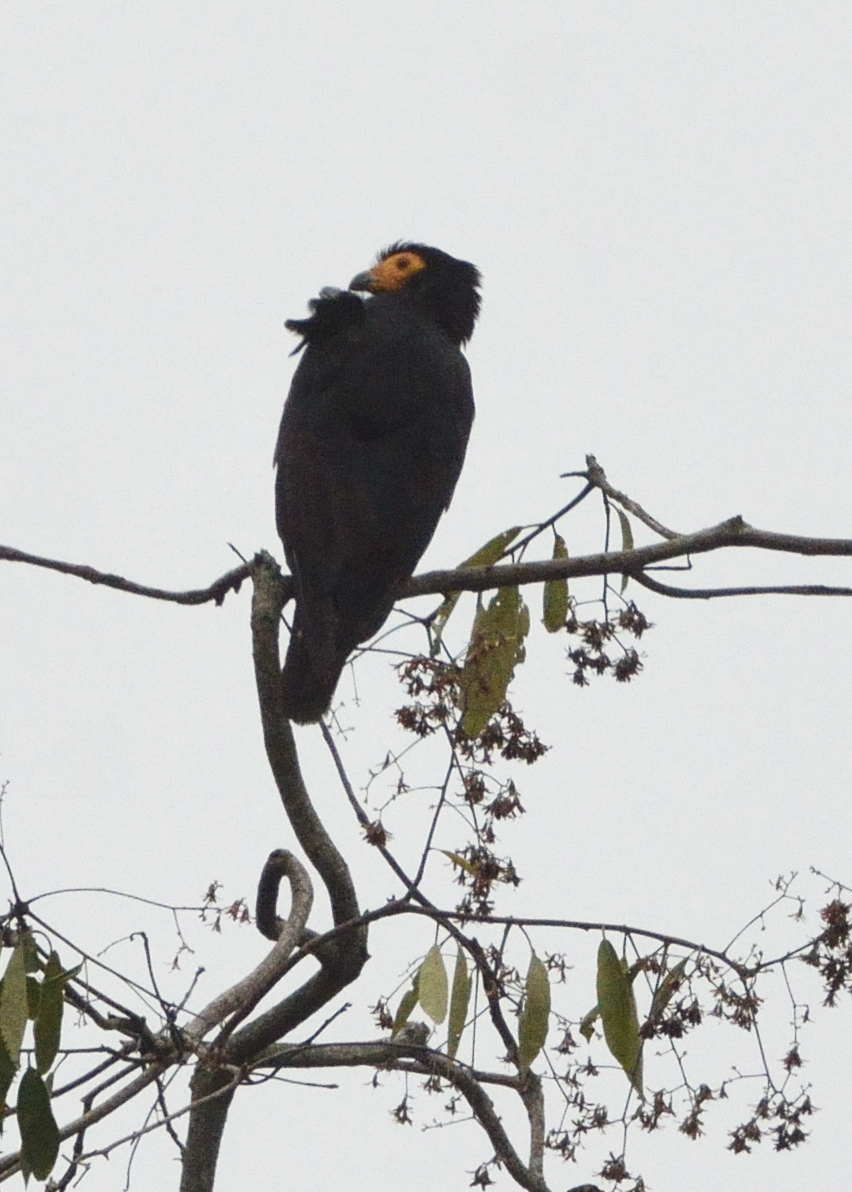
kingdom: Animalia
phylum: Chordata
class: Aves
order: Falconiformes
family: Falconidae
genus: Daptrius
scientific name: Daptrius ater
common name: Black caracara
